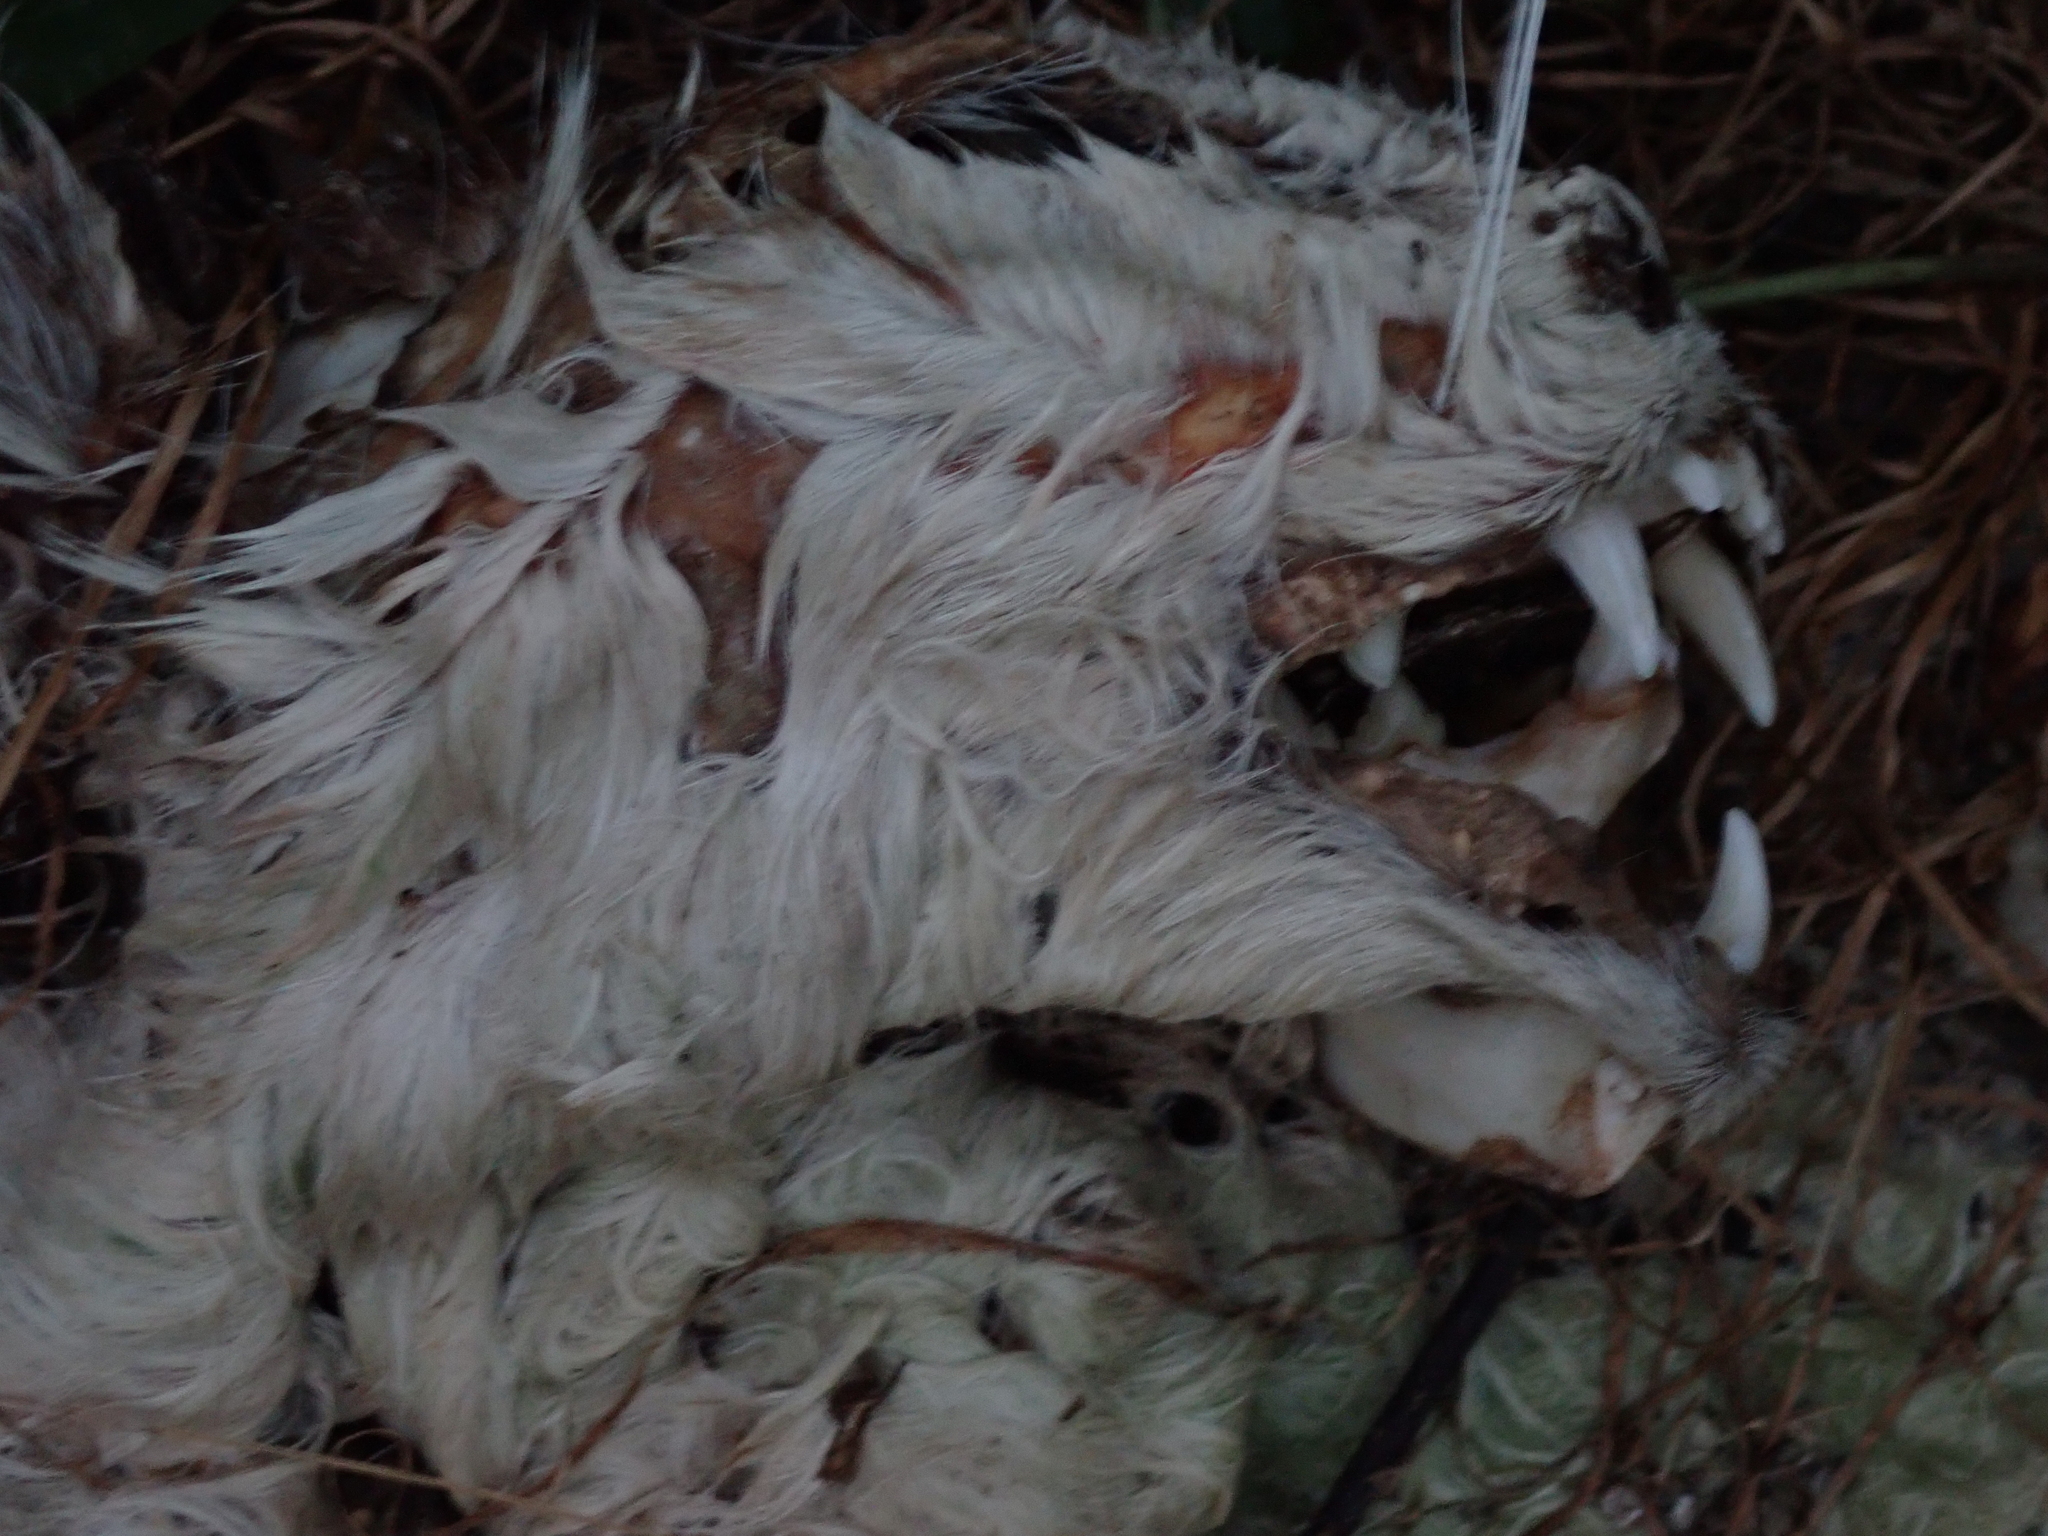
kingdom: Animalia
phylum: Chordata
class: Mammalia
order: Carnivora
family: Felidae
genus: Felis
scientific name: Felis catus
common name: Domestic cat
